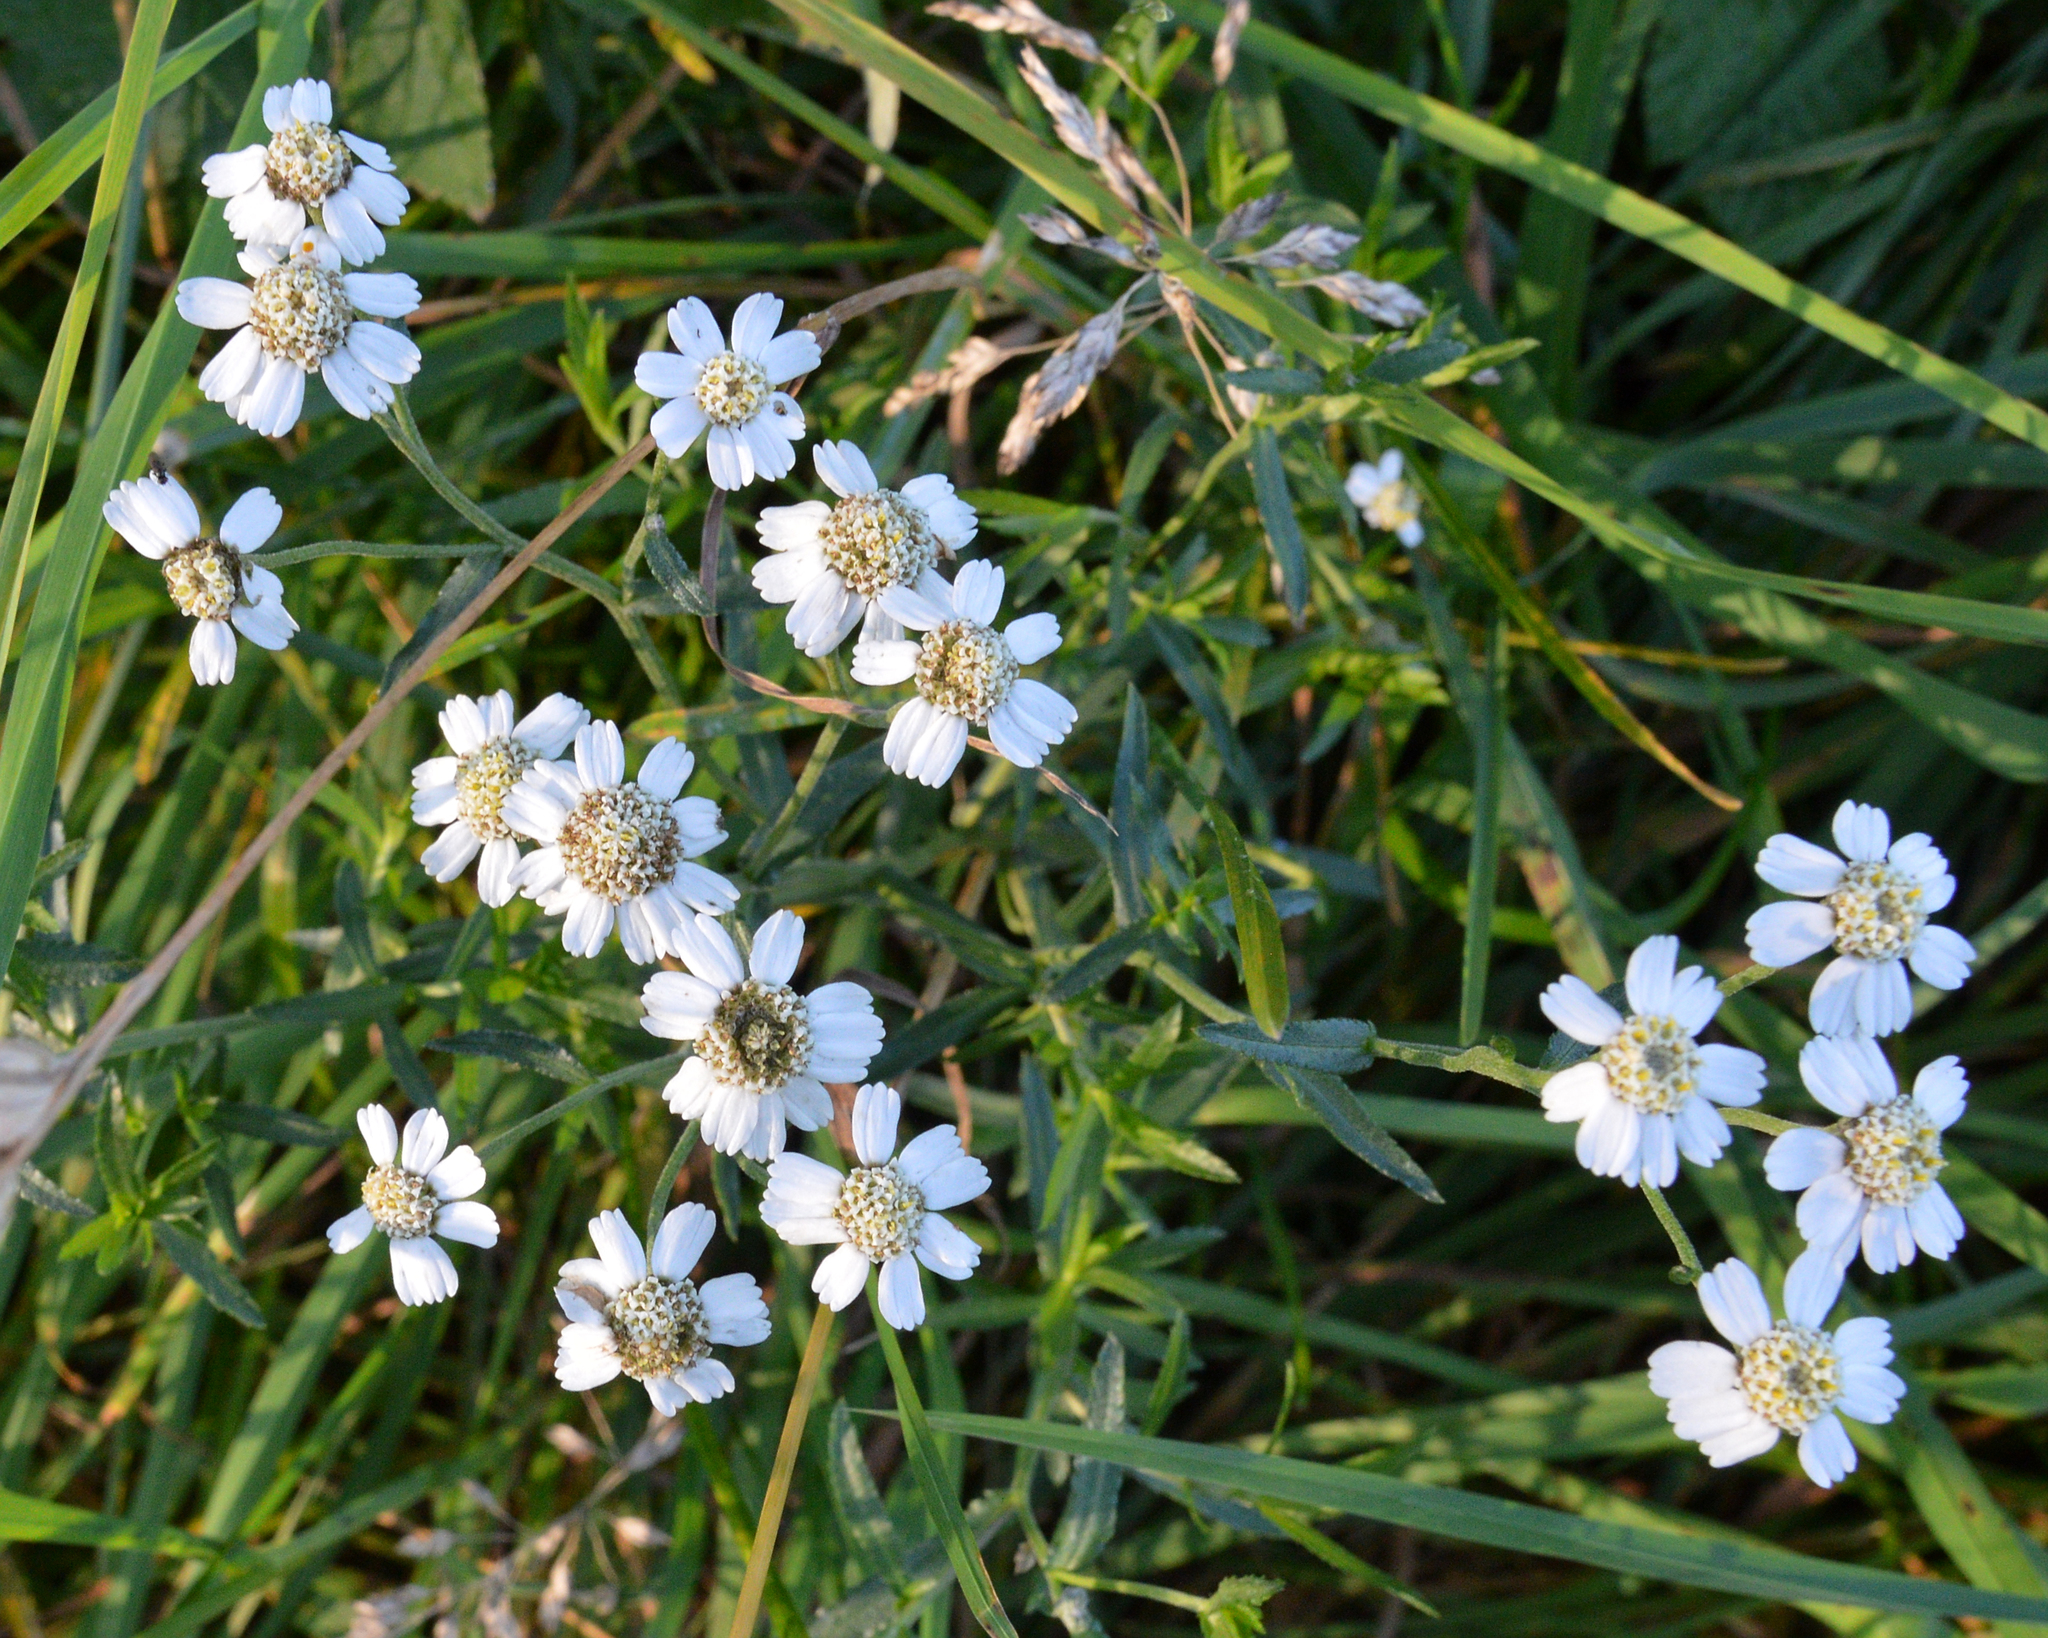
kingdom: Plantae
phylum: Tracheophyta
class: Magnoliopsida
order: Asterales
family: Asteraceae
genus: Achillea
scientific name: Achillea ptarmica
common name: Sneezeweed
